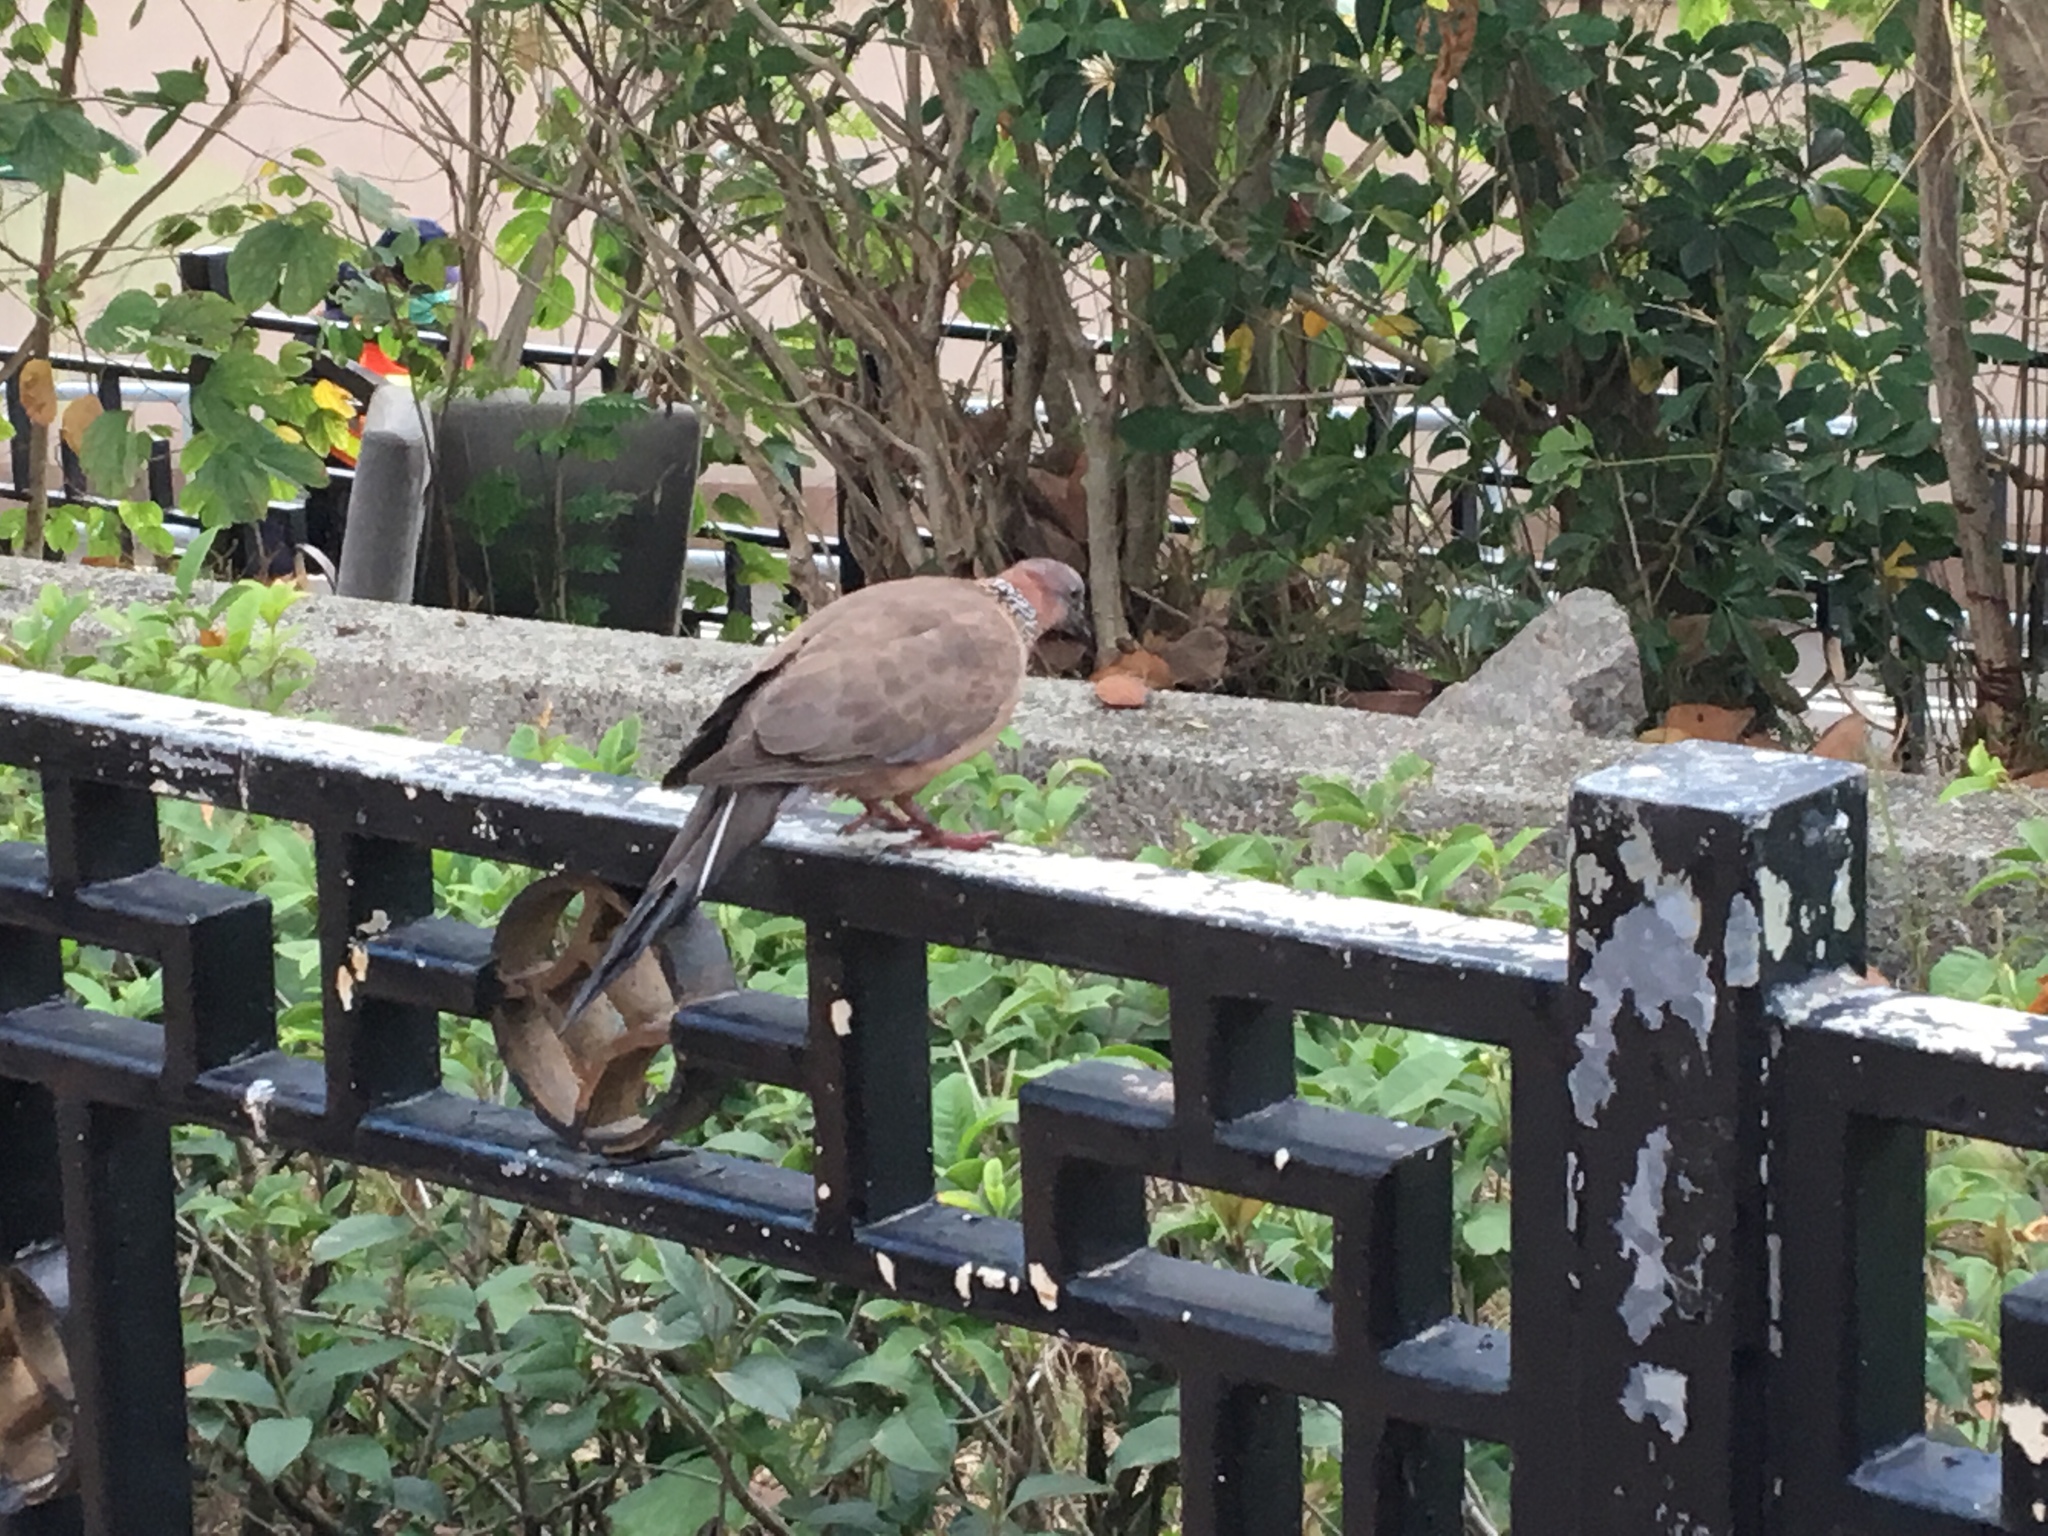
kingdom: Animalia
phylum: Chordata
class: Aves
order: Columbiformes
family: Columbidae
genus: Spilopelia
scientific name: Spilopelia chinensis
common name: Spotted dove
